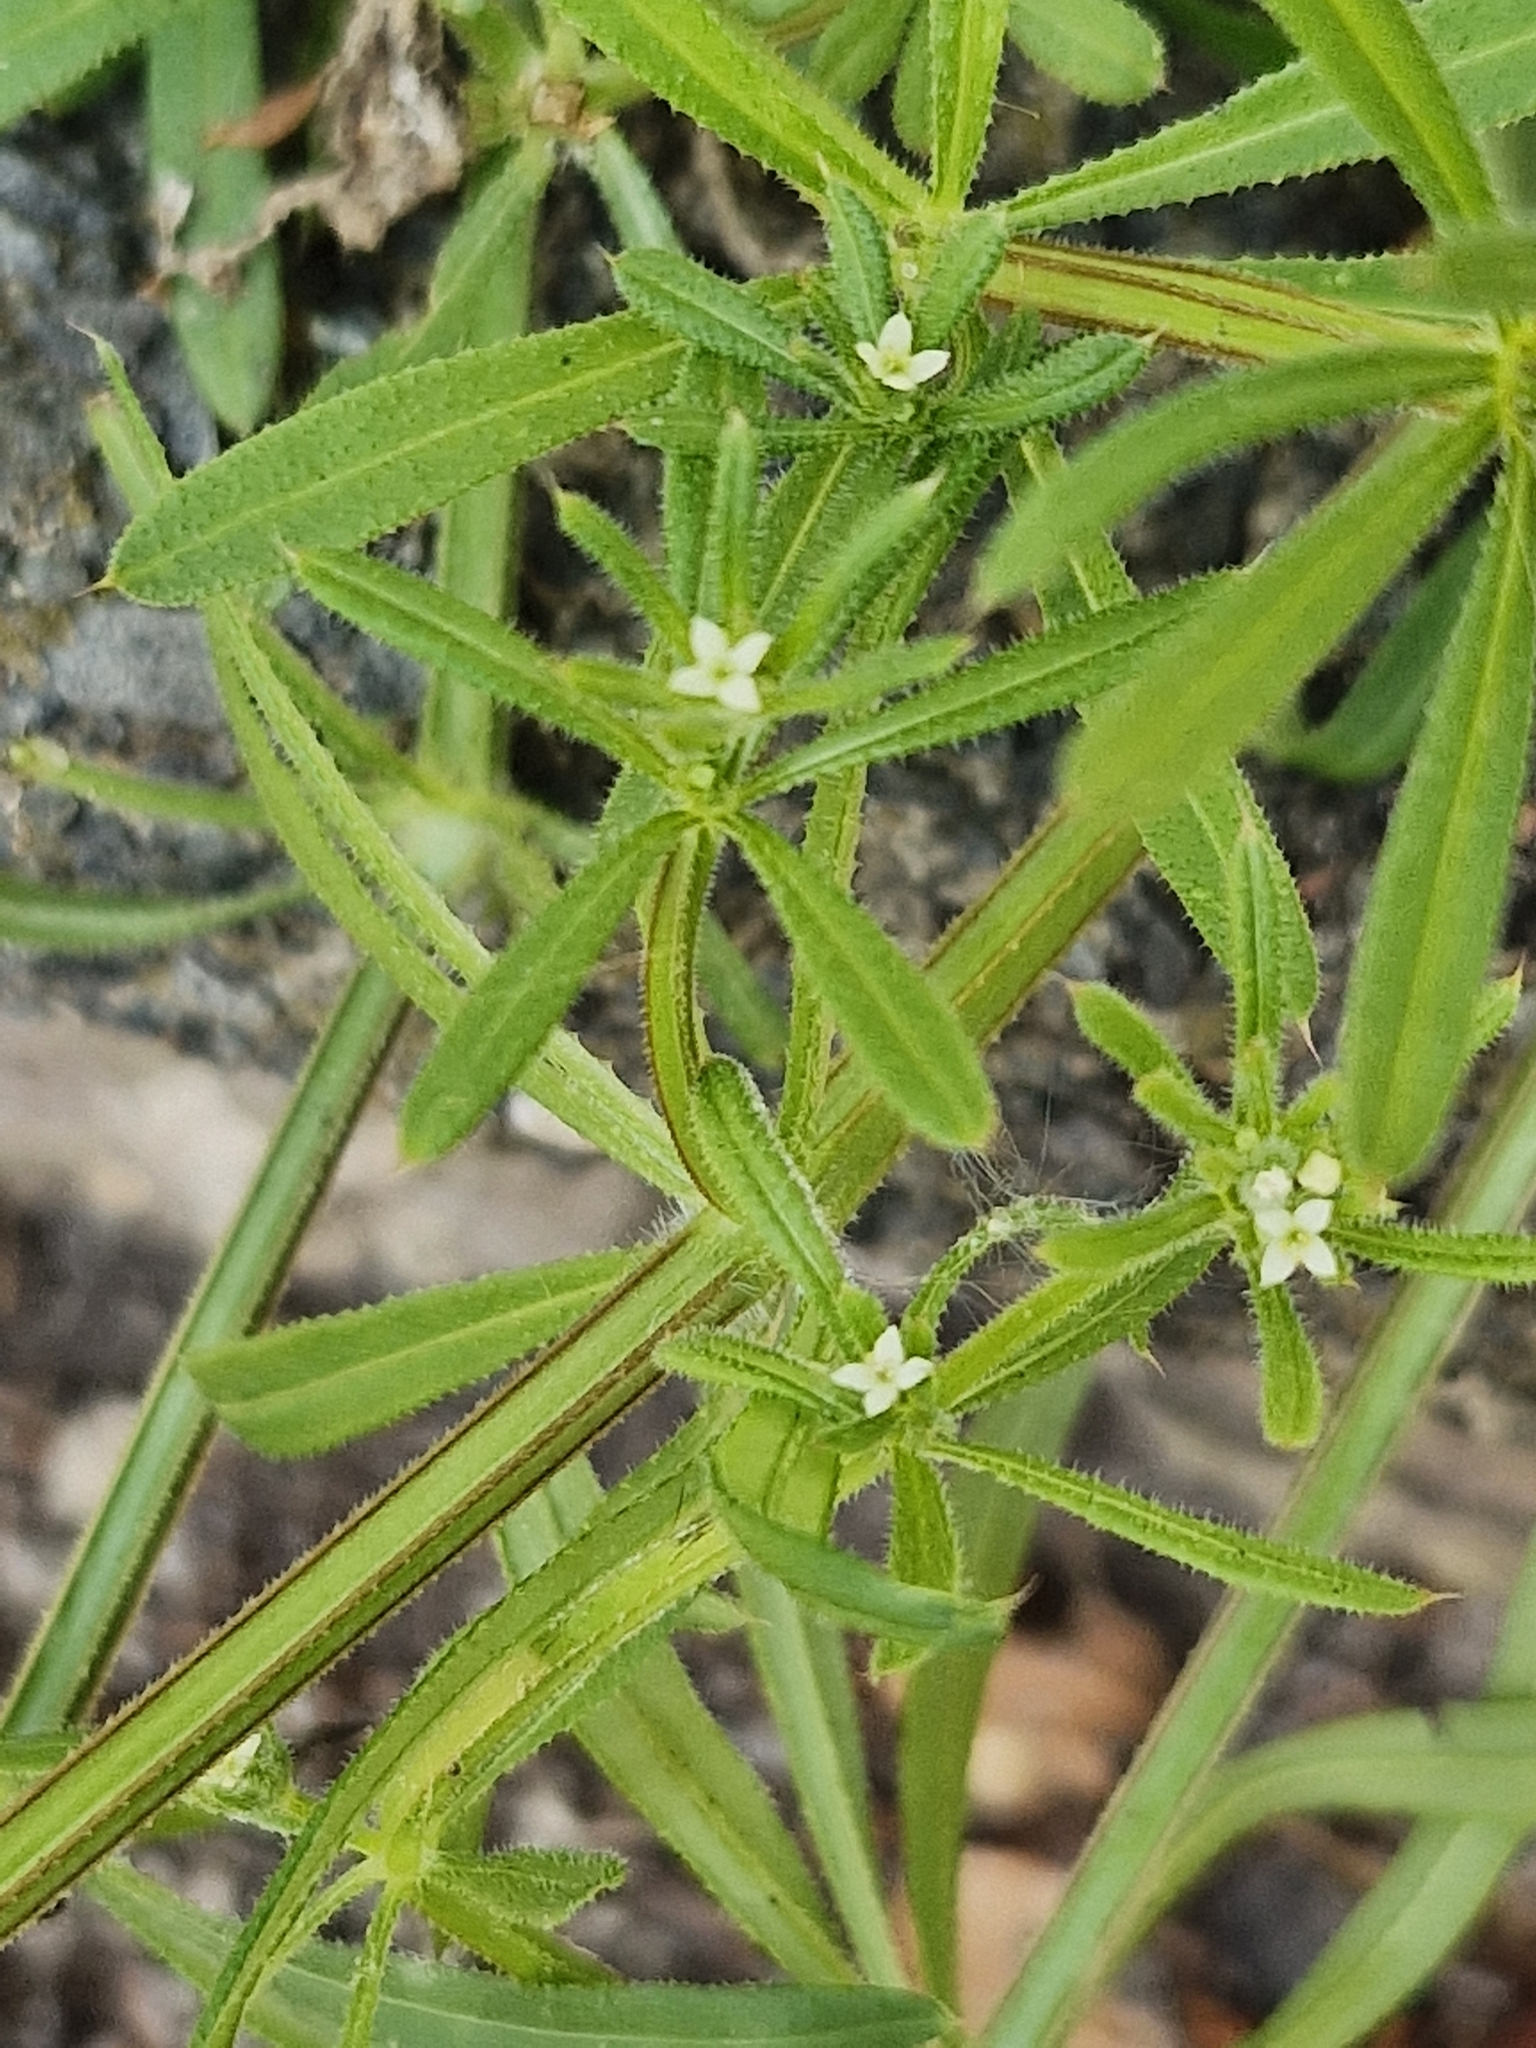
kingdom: Plantae
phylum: Tracheophyta
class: Magnoliopsida
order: Gentianales
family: Rubiaceae
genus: Galium
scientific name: Galium aparine
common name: Cleavers
